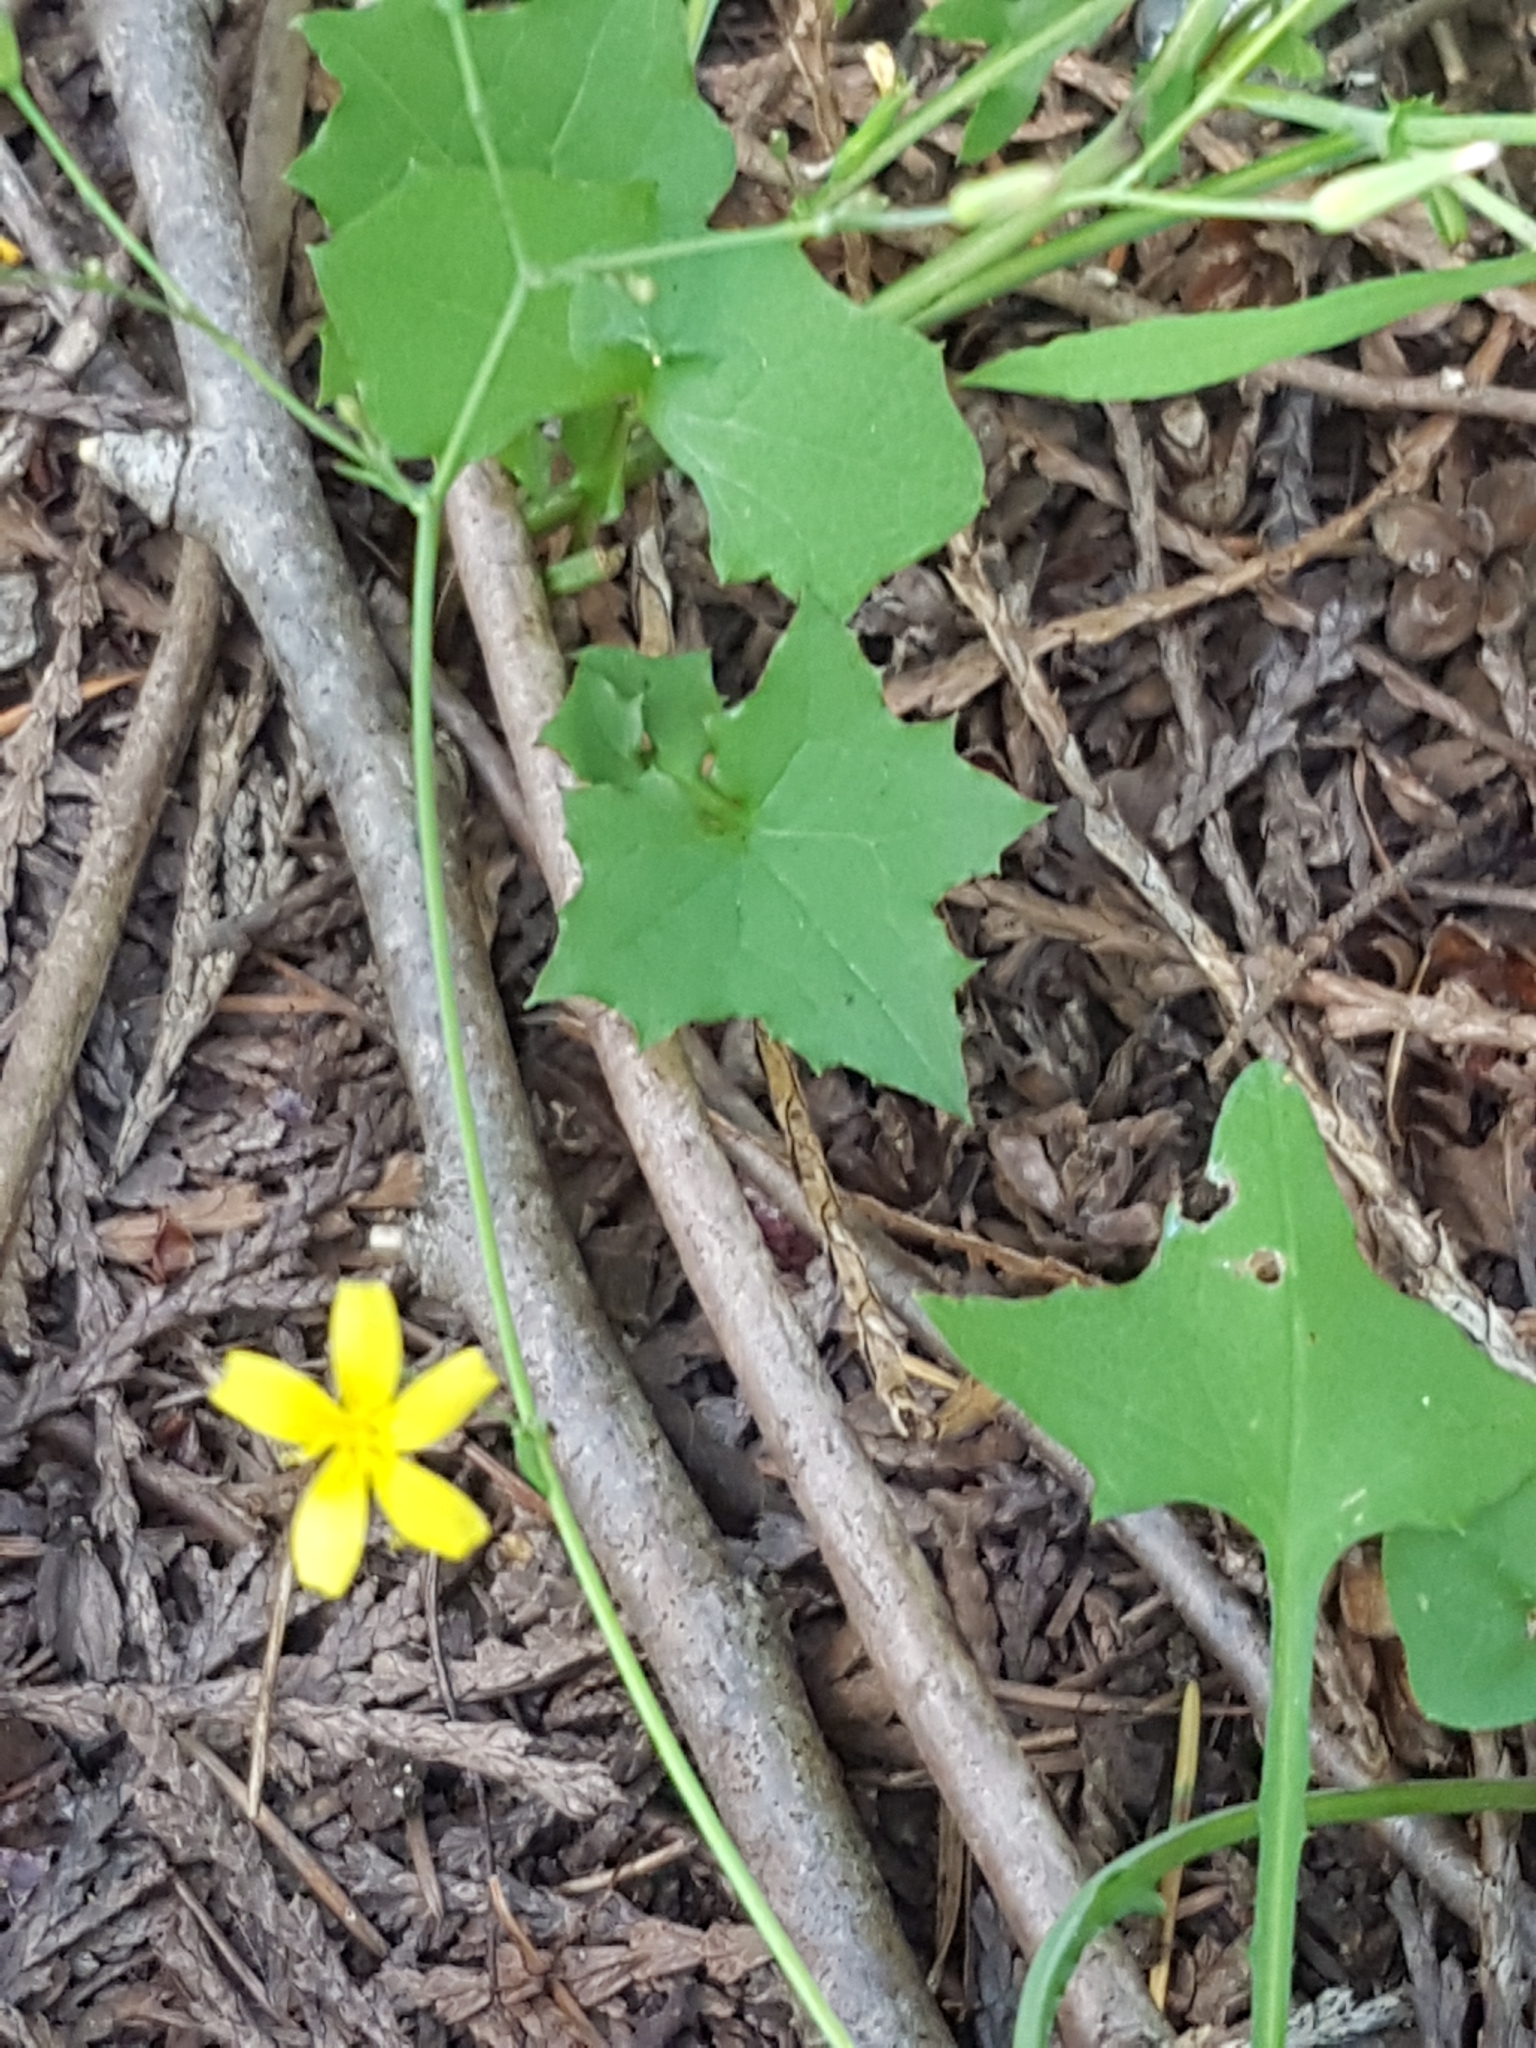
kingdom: Plantae
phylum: Tracheophyta
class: Magnoliopsida
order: Asterales
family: Asteraceae
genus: Mycelis
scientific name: Mycelis muralis
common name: Wall lettuce
